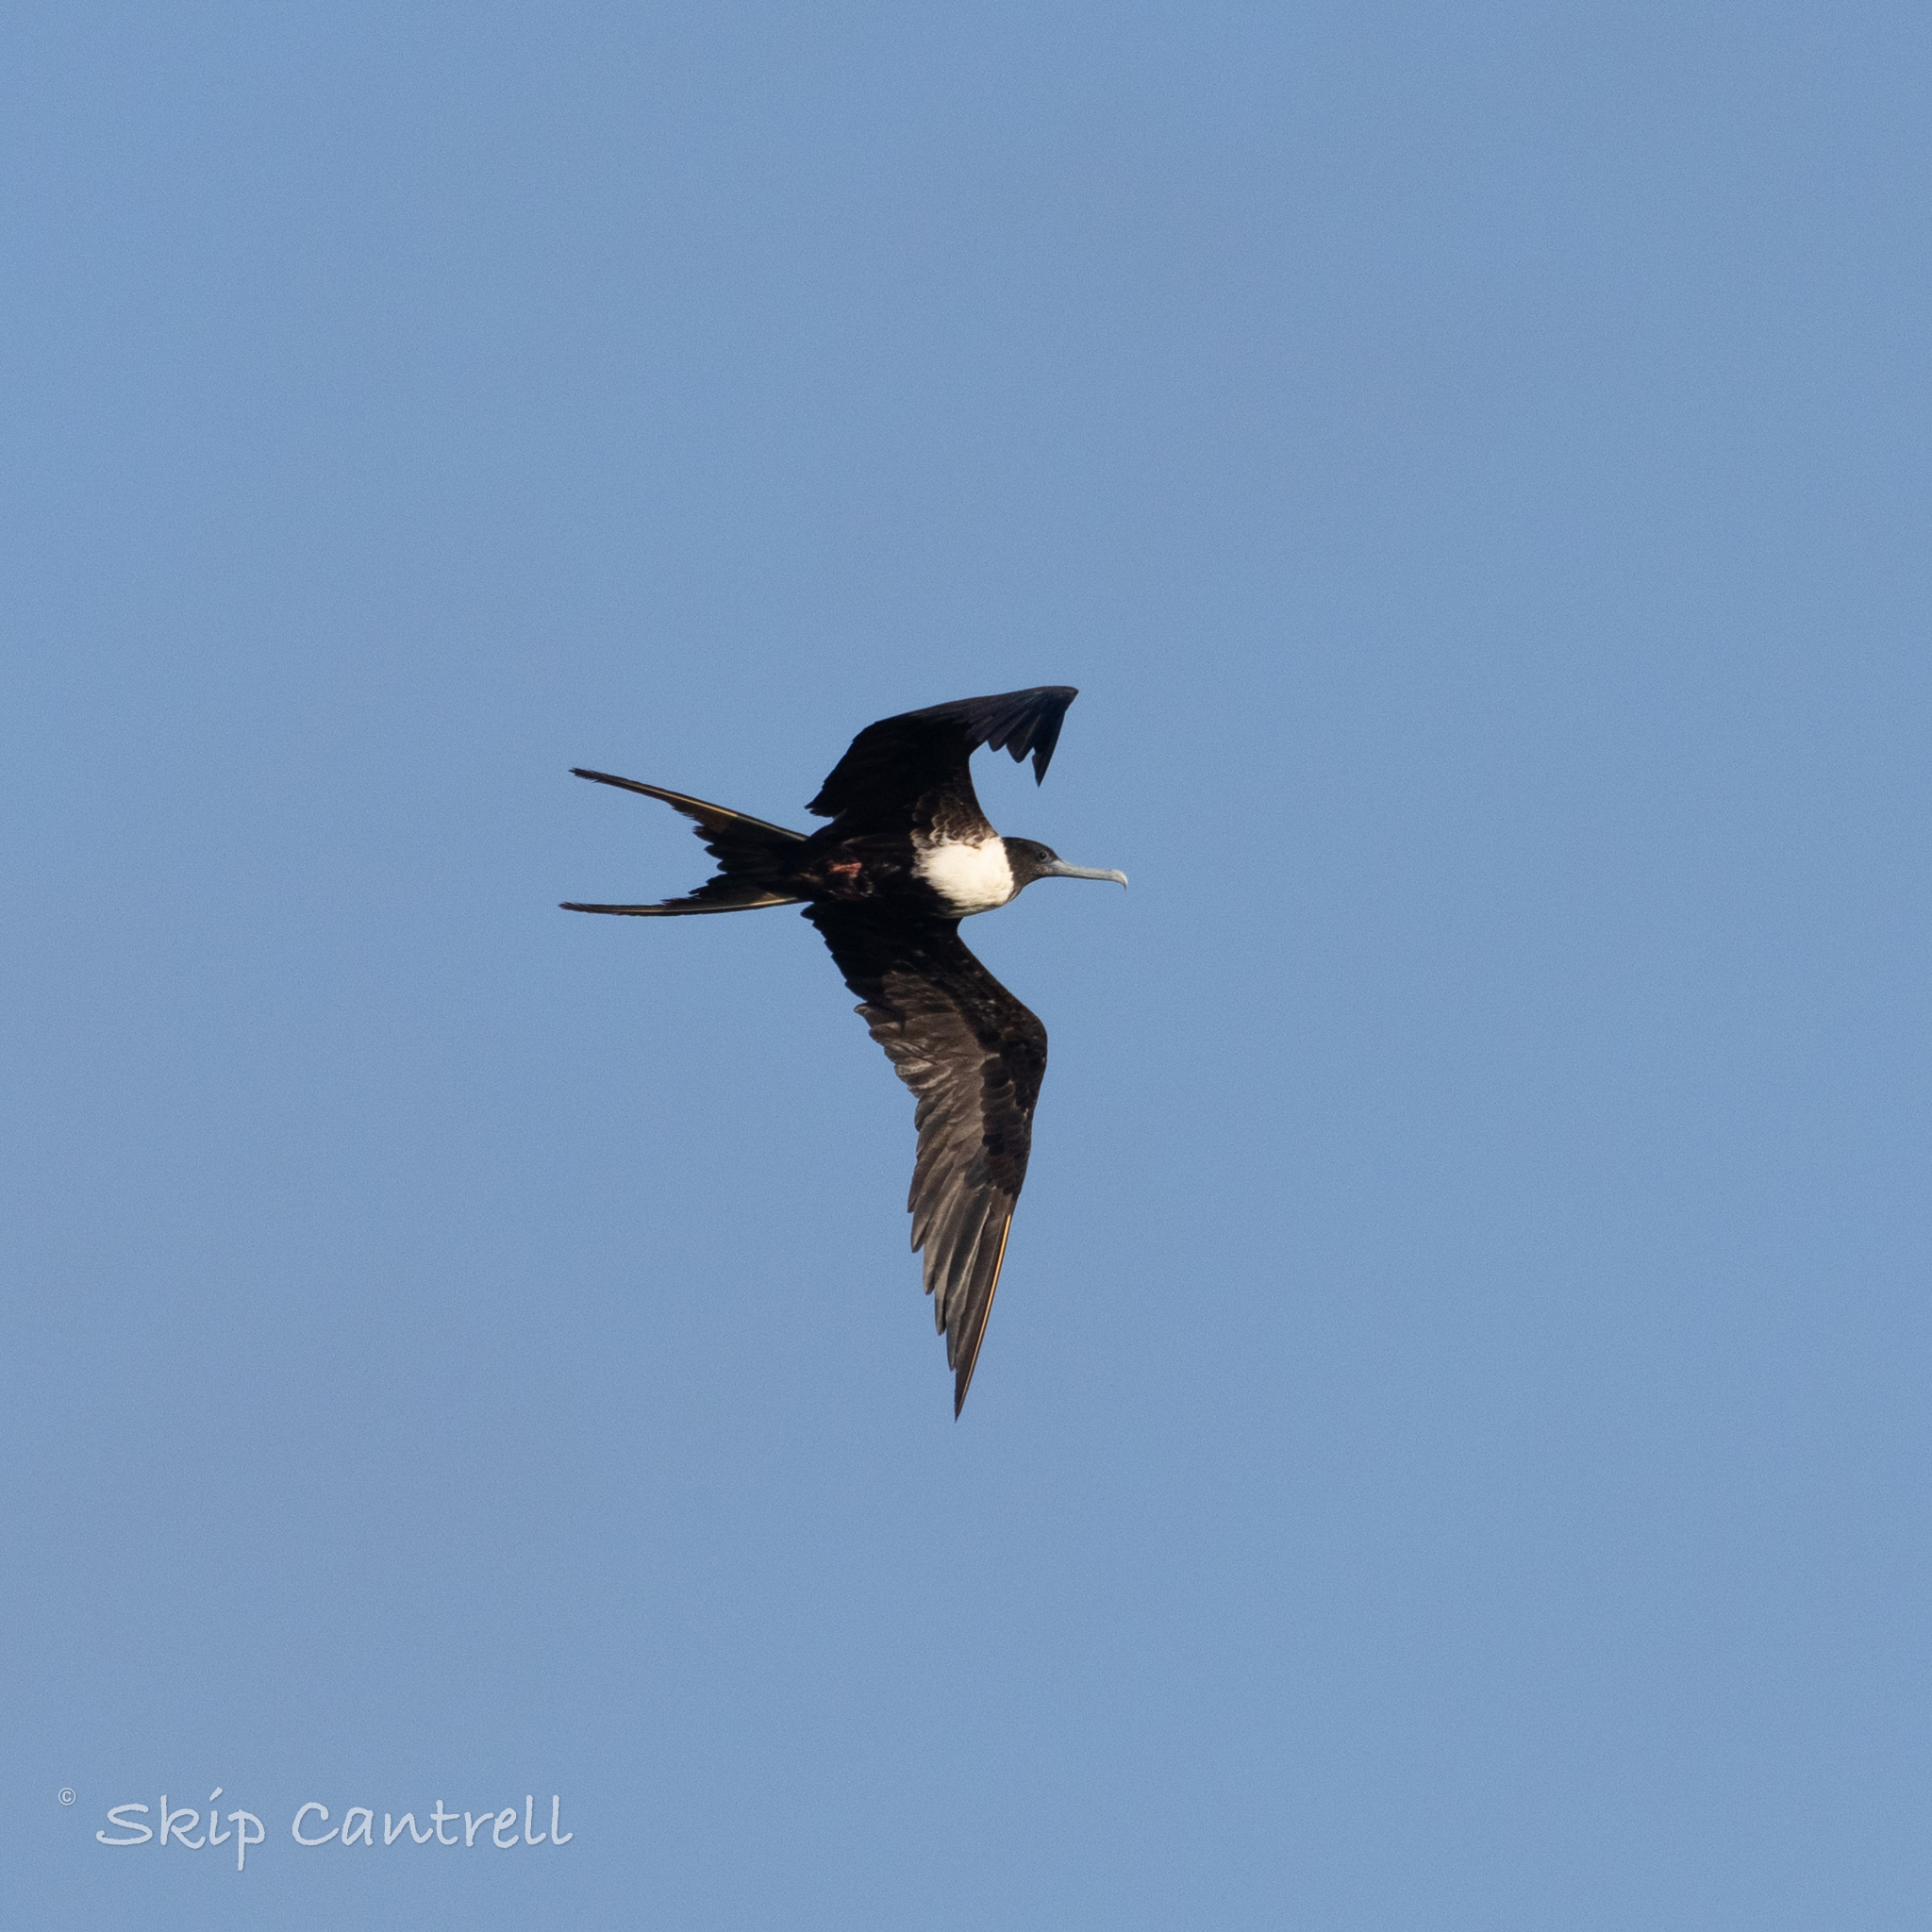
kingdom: Animalia
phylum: Chordata
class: Aves
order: Suliformes
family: Fregatidae
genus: Fregata
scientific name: Fregata magnificens
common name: Magnificent frigatebird
